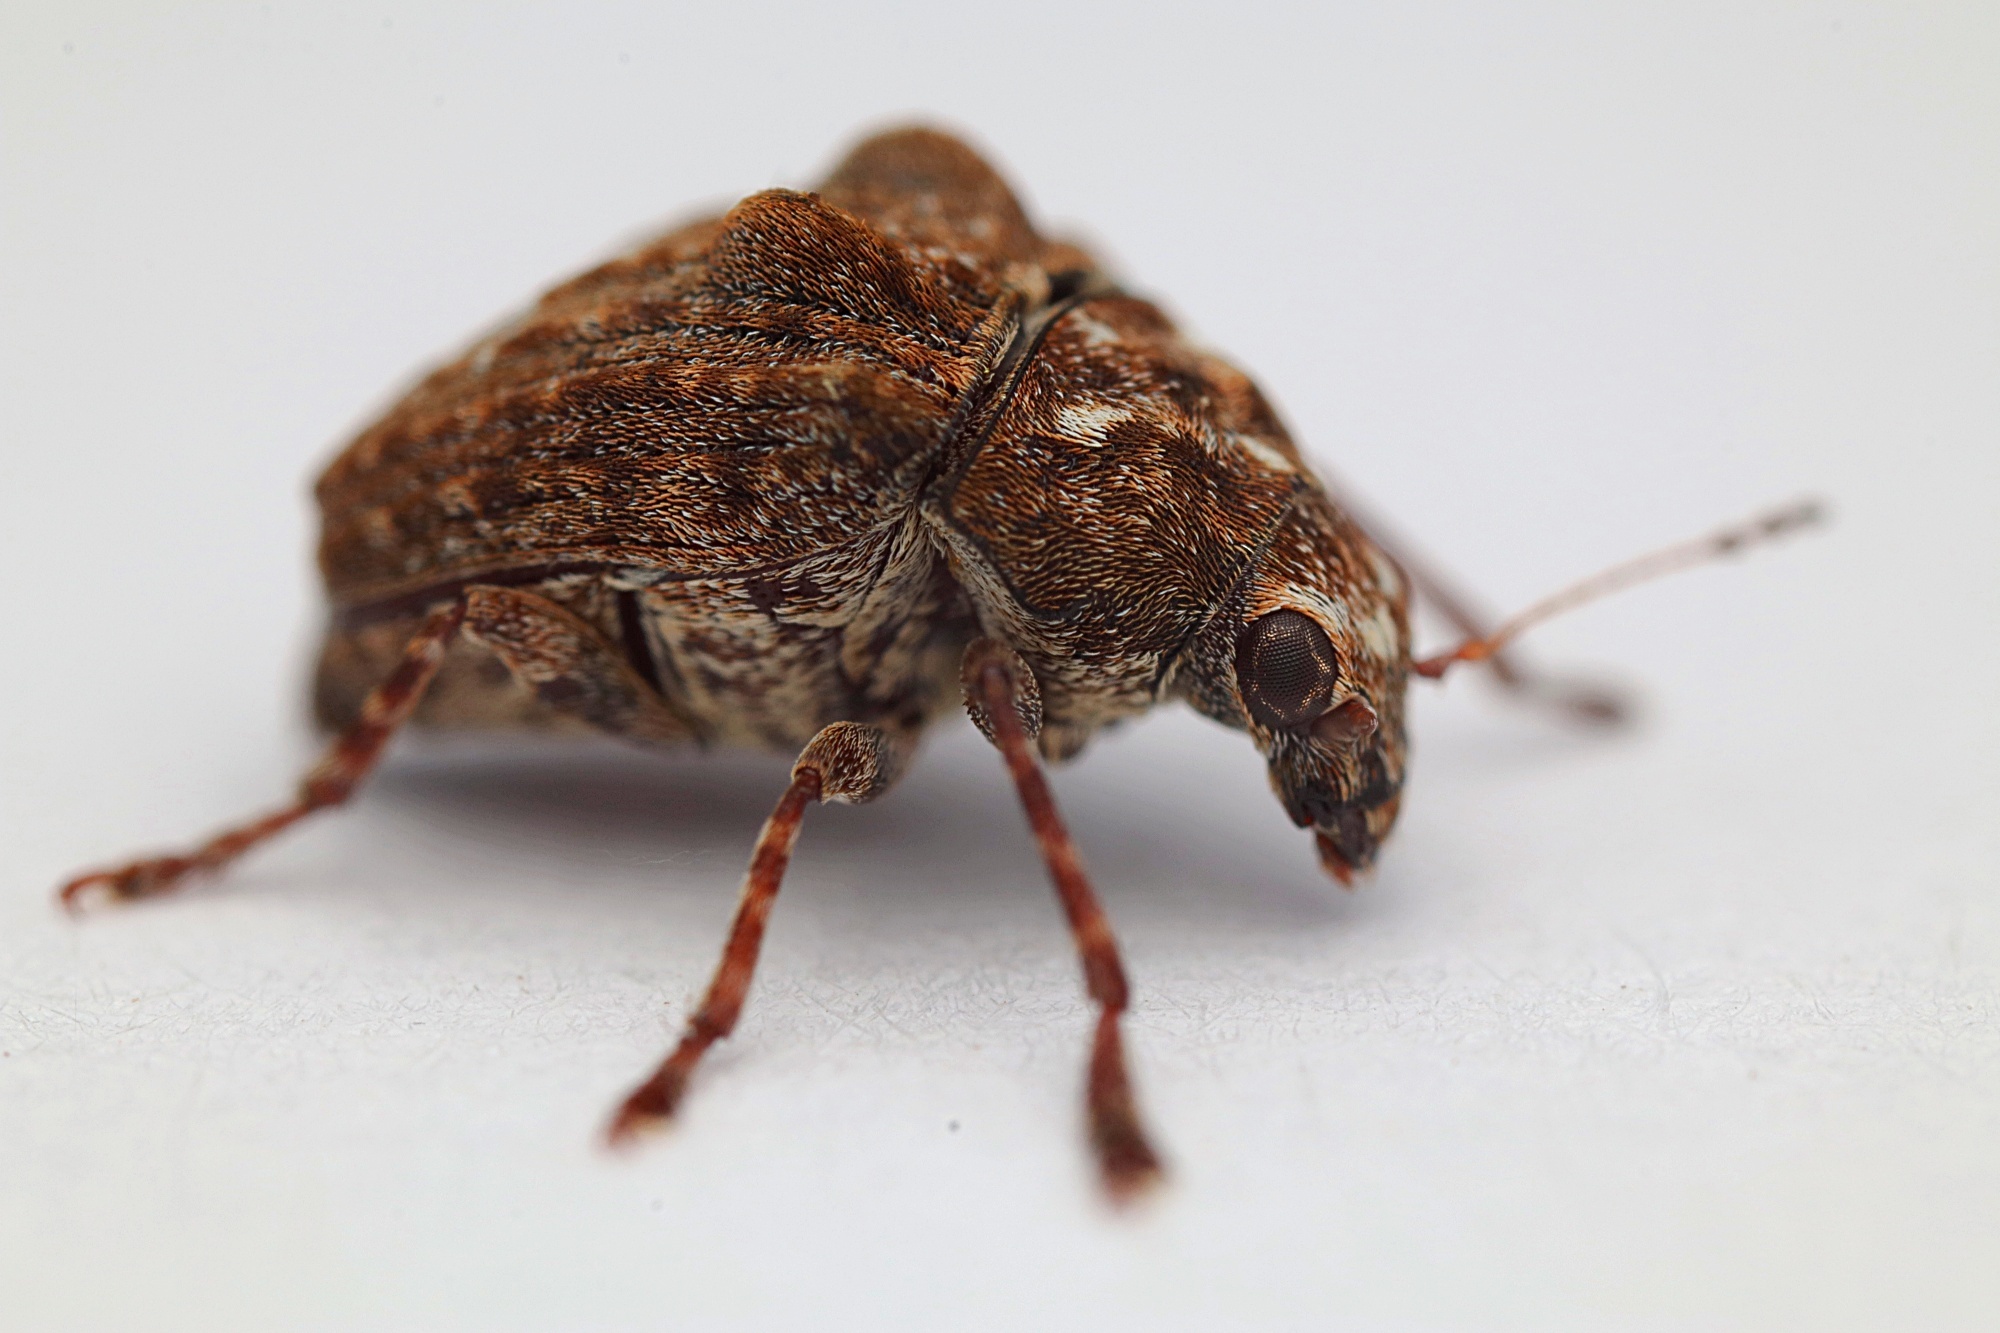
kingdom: Animalia
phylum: Arthropoda
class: Insecta
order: Coleoptera
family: Anthribidae
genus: Araecerus
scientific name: Araecerus
